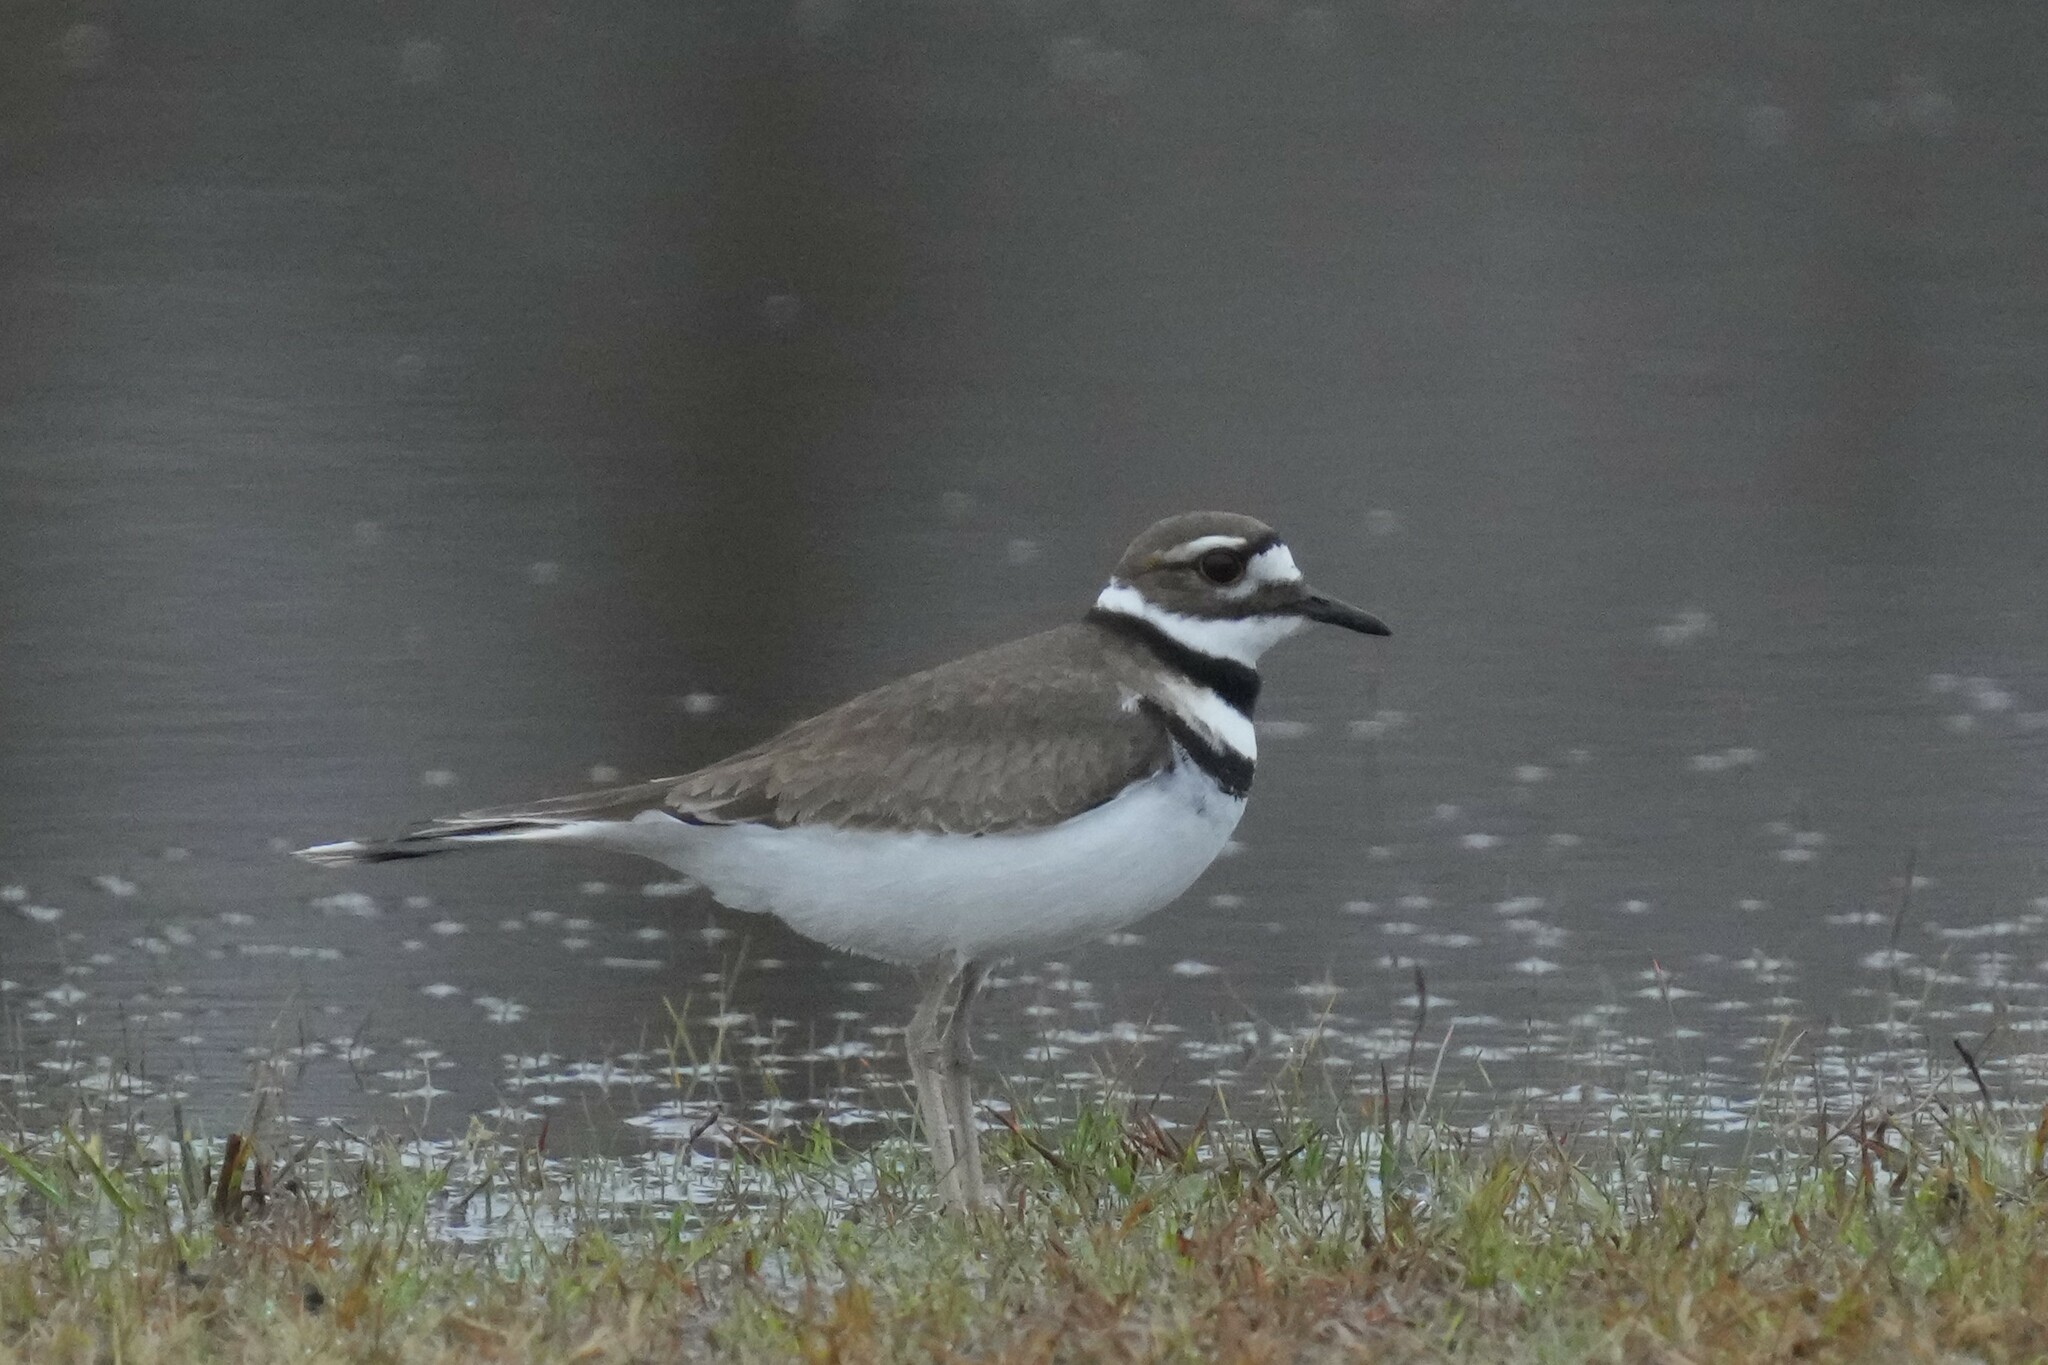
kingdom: Animalia
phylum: Chordata
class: Aves
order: Charadriiformes
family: Charadriidae
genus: Charadrius
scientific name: Charadrius vociferus
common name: Killdeer
